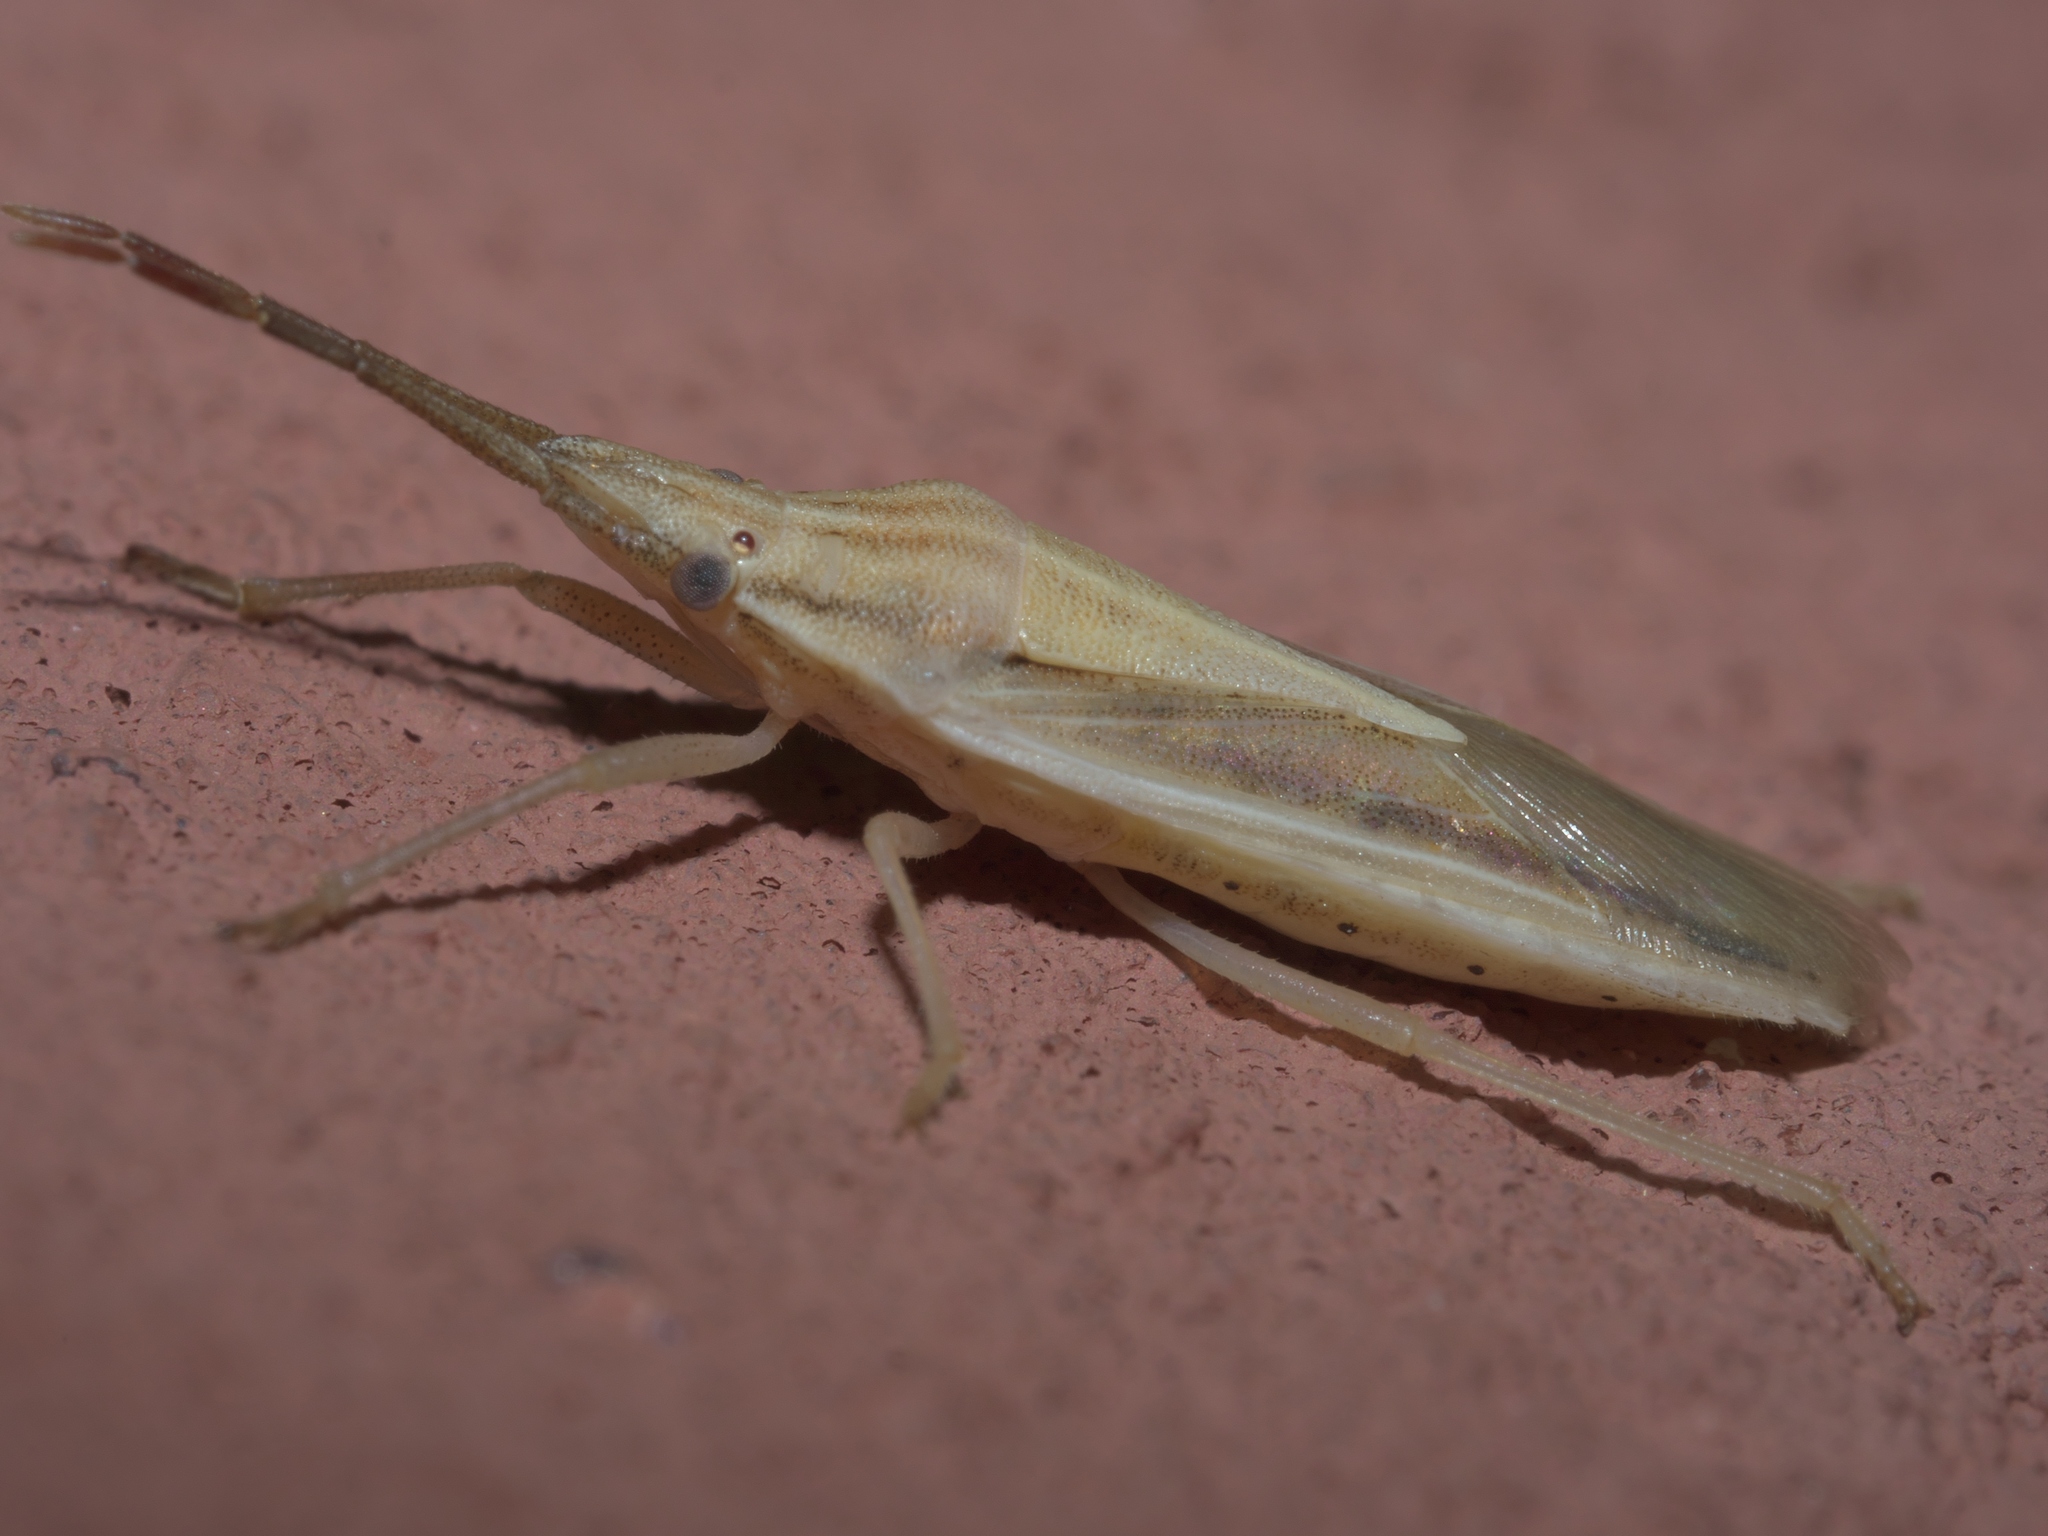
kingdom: Animalia
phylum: Arthropoda
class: Insecta
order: Hemiptera
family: Pentatomidae
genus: Mecidea
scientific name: Mecidea major
